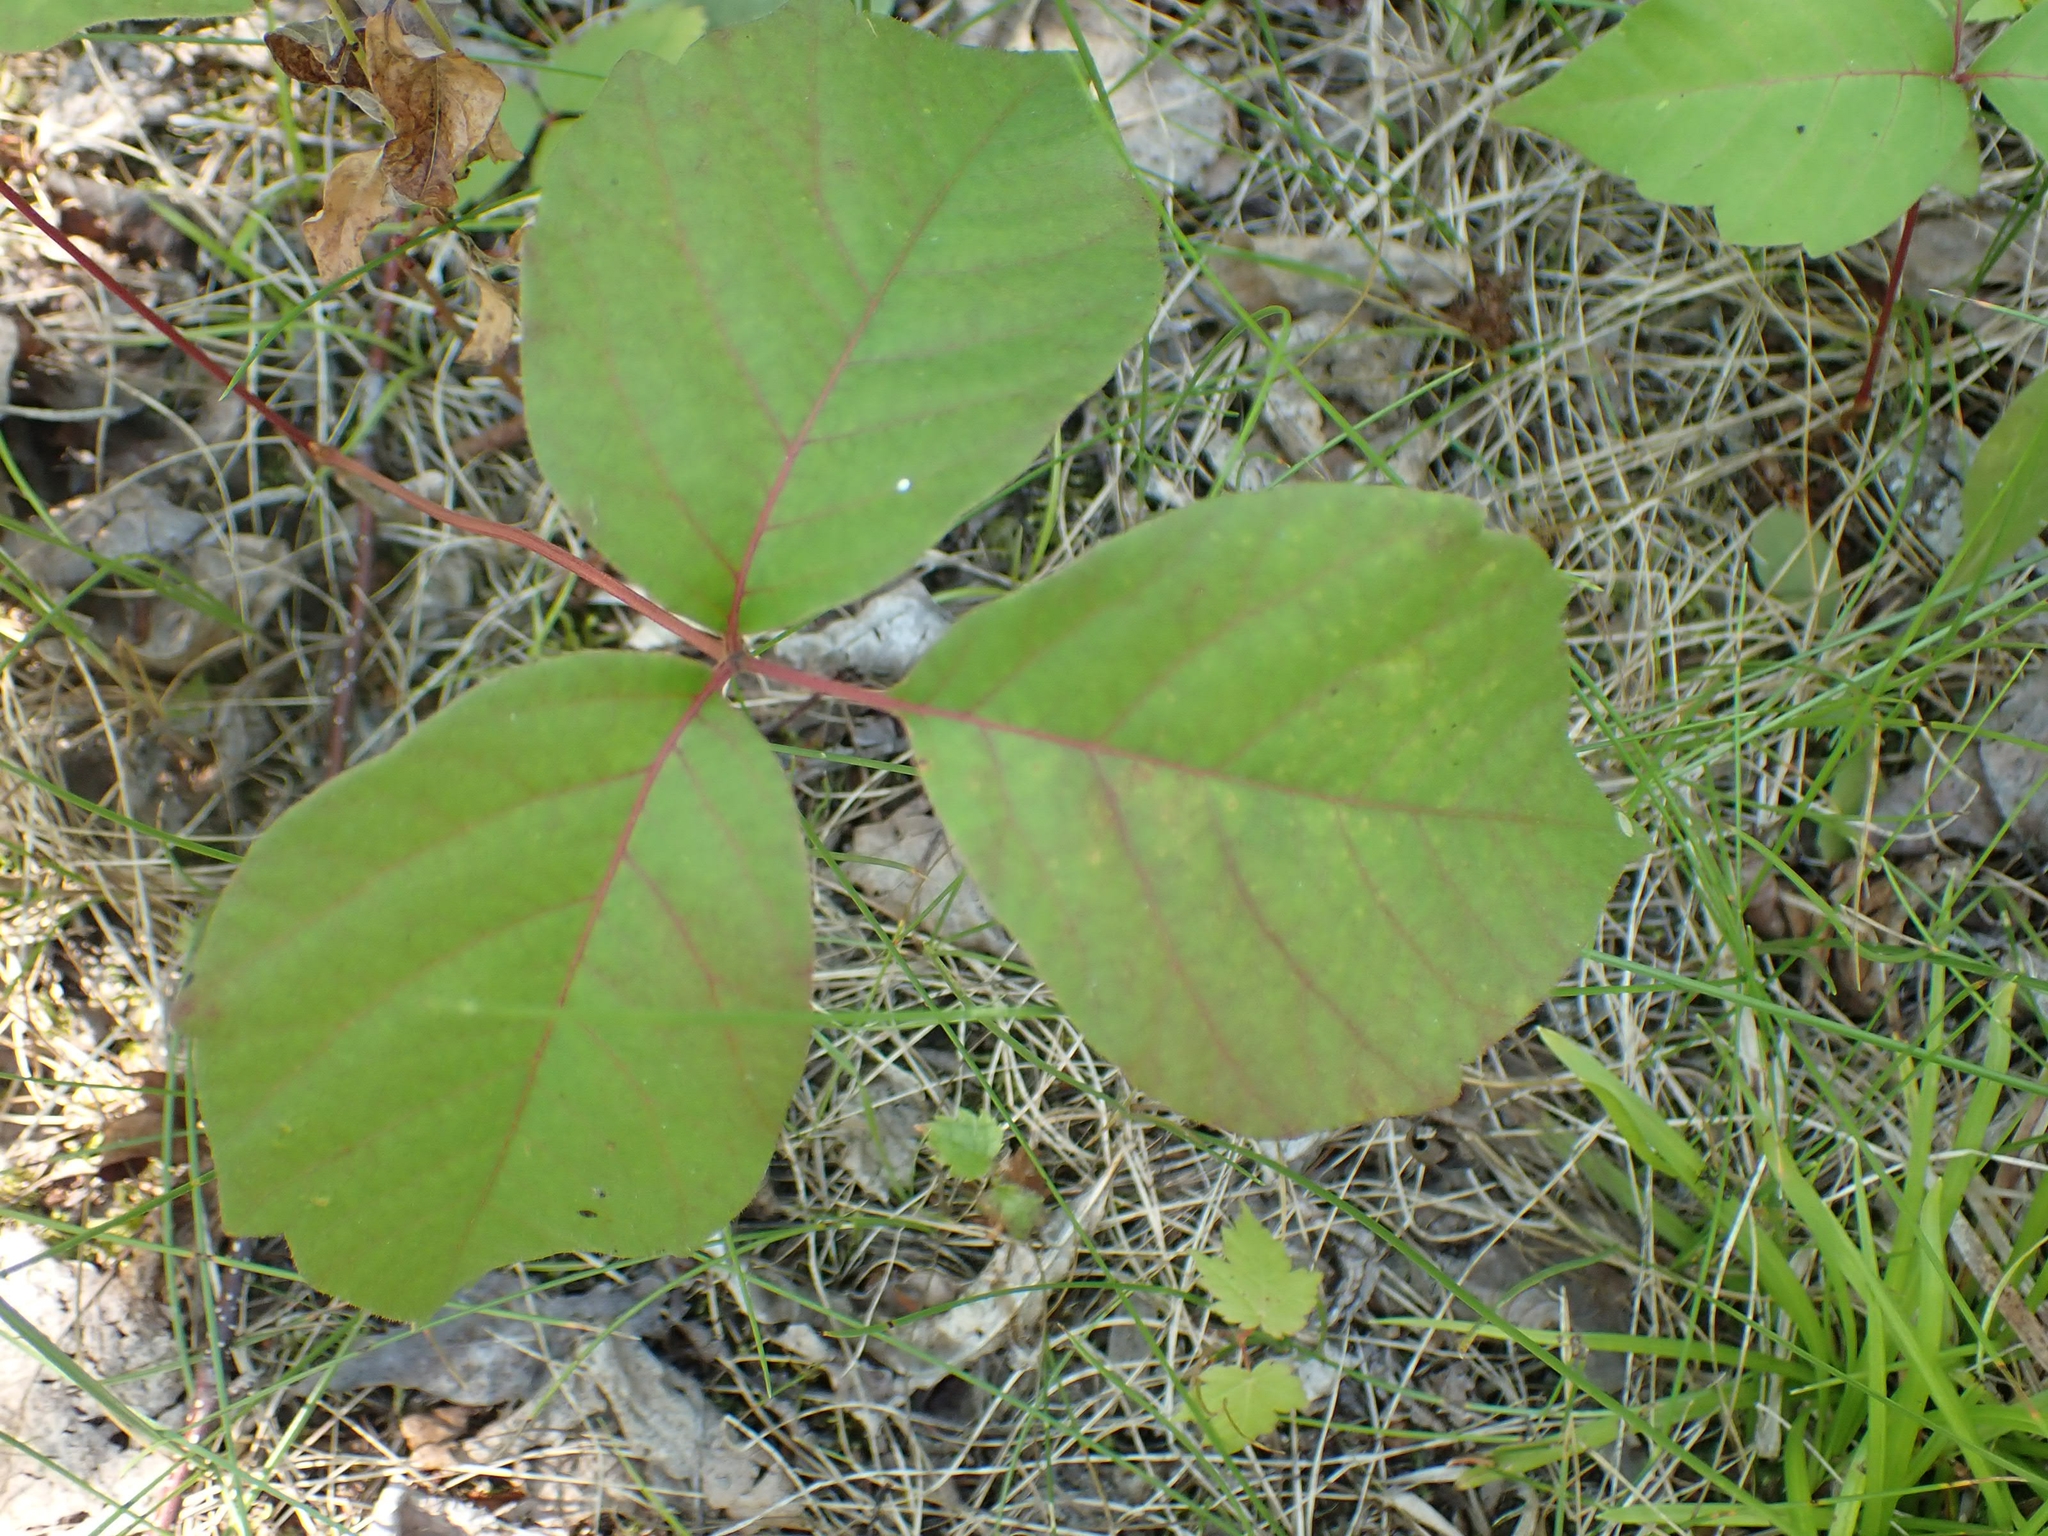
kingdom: Plantae
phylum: Tracheophyta
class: Magnoliopsida
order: Sapindales
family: Anacardiaceae
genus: Toxicodendron
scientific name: Toxicodendron rydbergii
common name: Rydberg's poison-ivy
